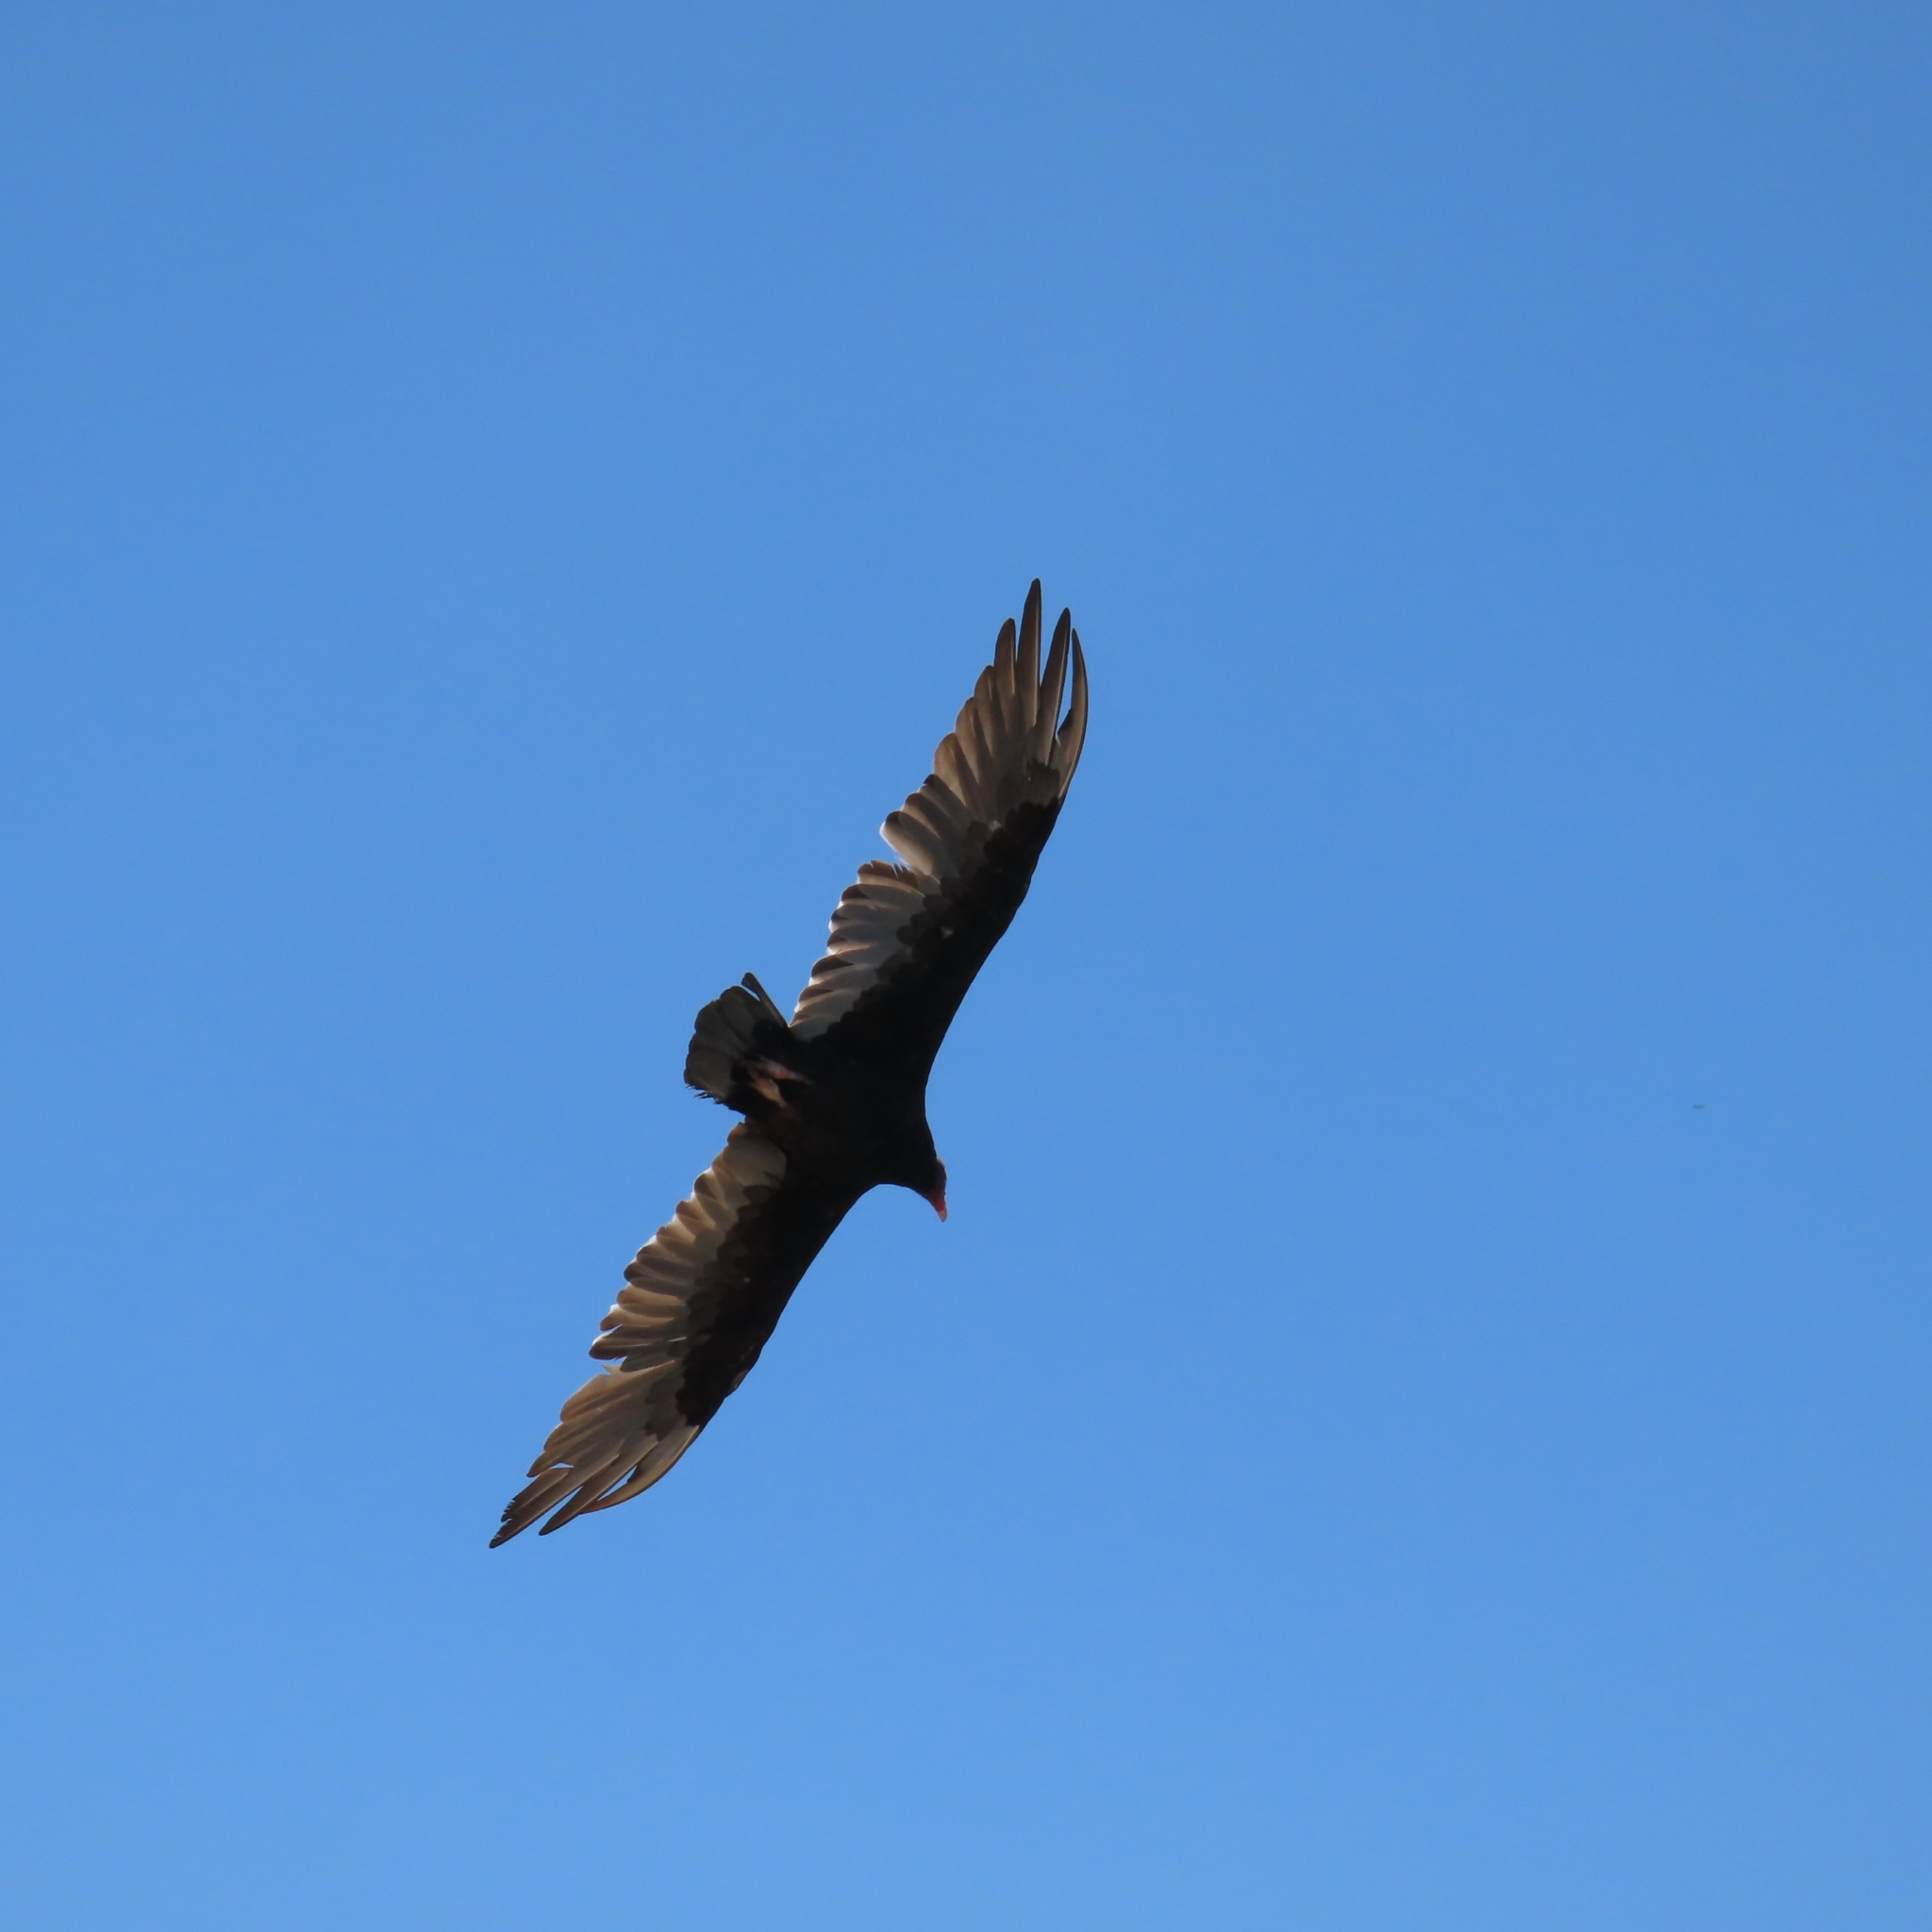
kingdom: Animalia
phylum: Chordata
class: Aves
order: Accipitriformes
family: Cathartidae
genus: Cathartes
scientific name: Cathartes aura
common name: Turkey vulture
